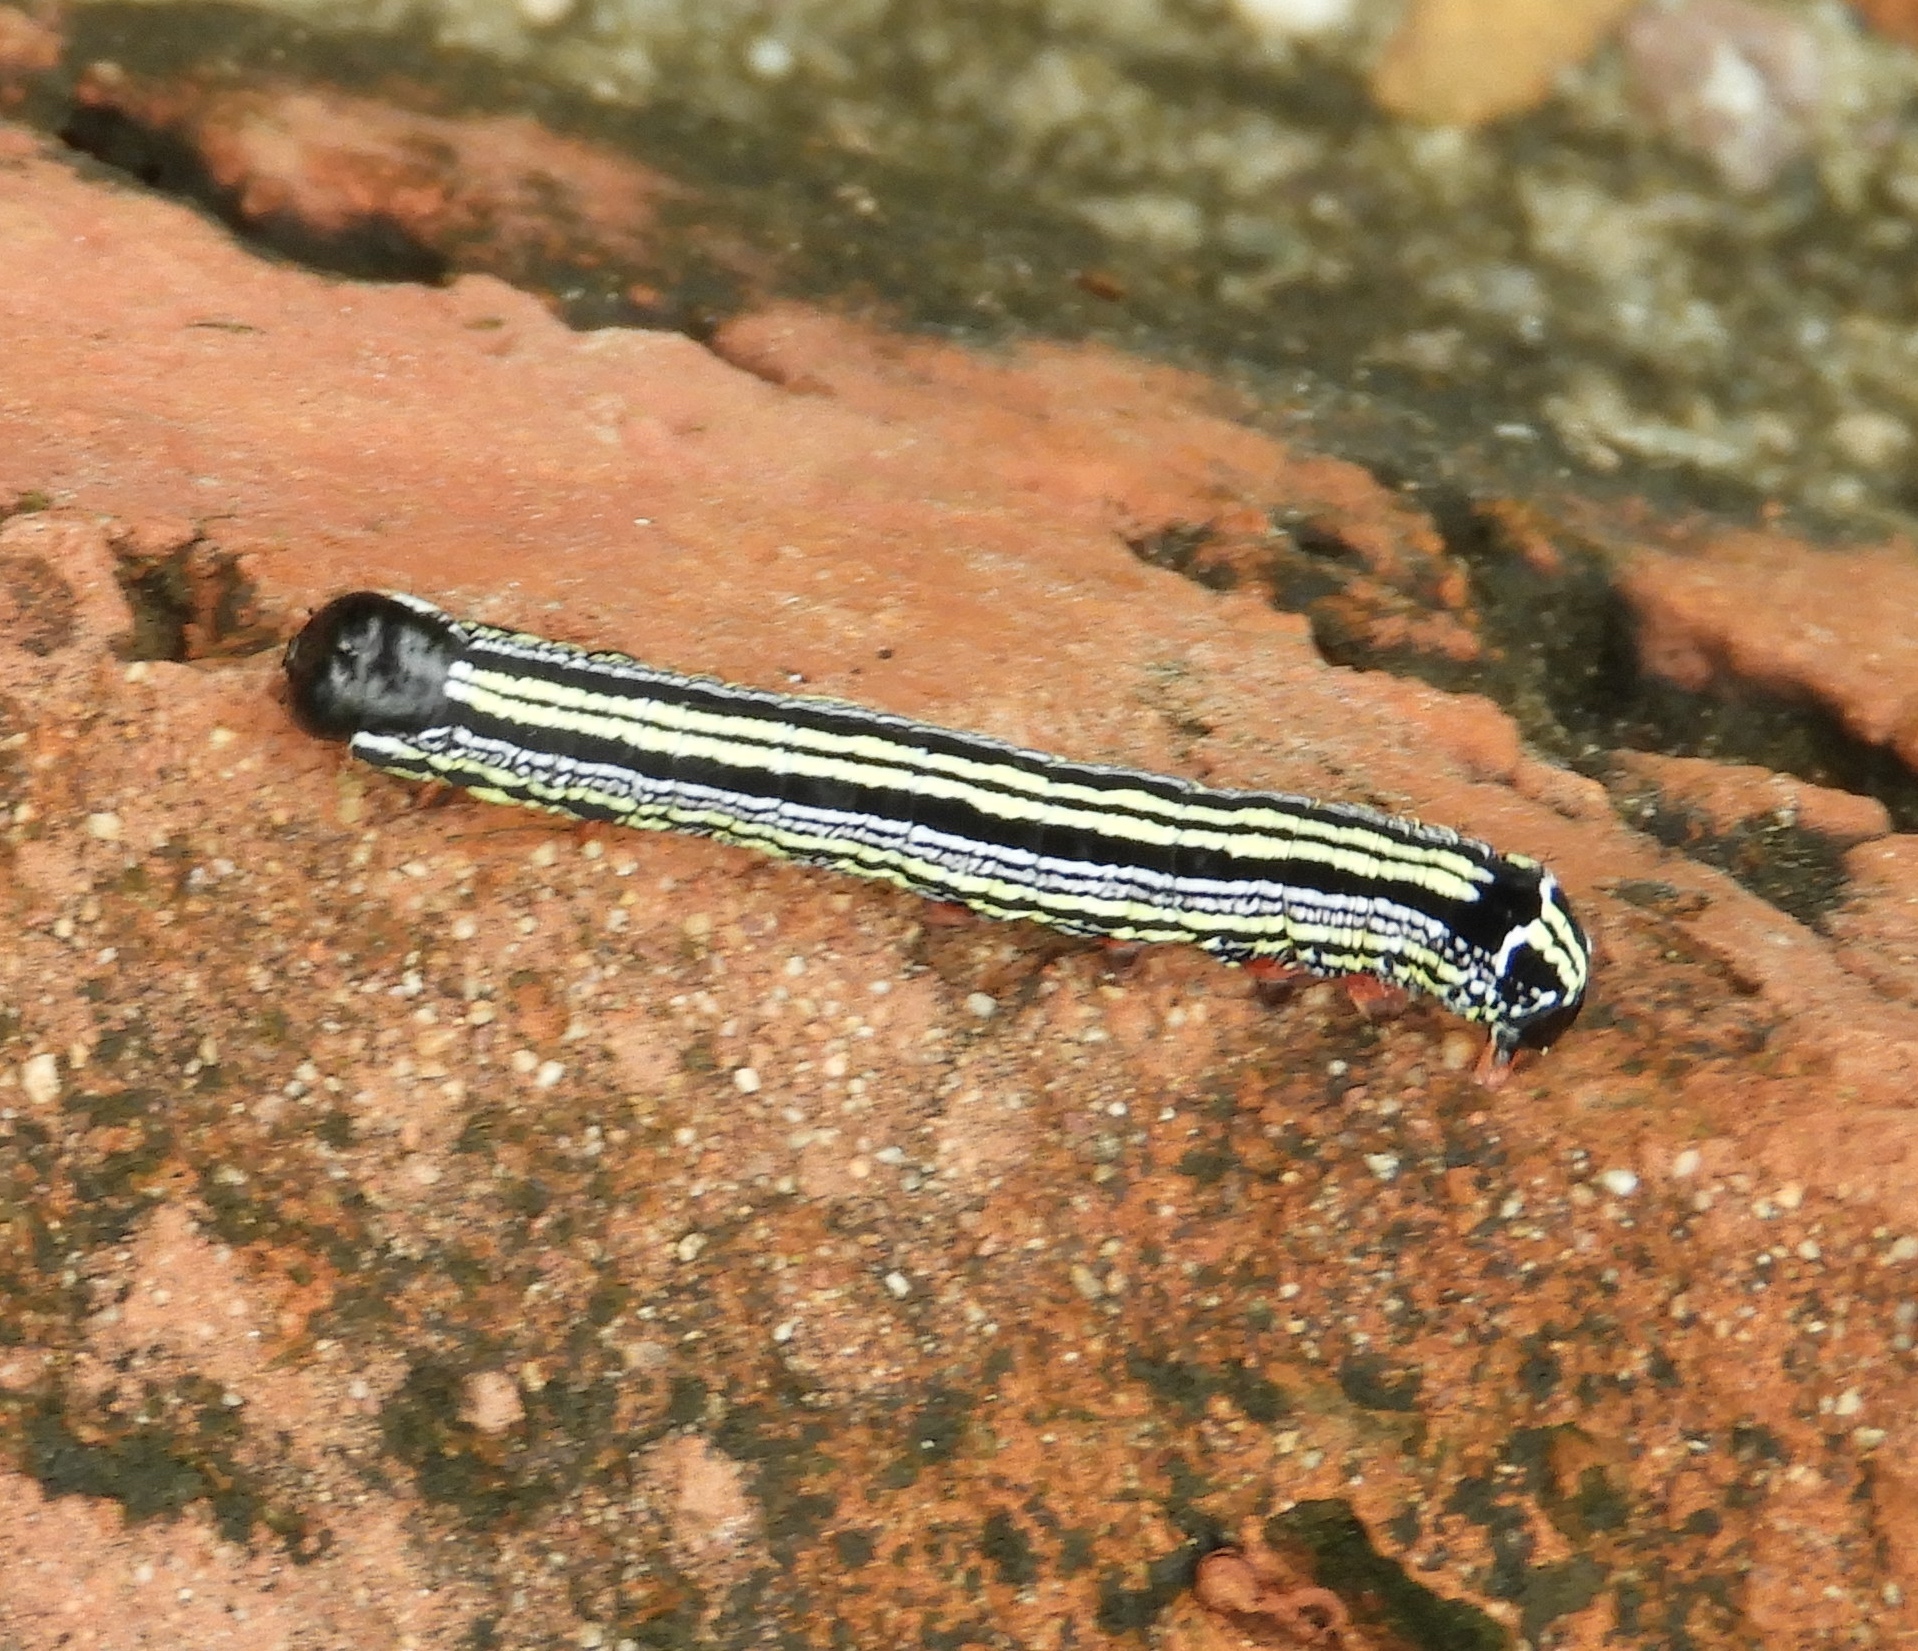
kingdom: Animalia
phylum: Arthropoda
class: Insecta
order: Lepidoptera
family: Notodontidae
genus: Cargida
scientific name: Cargida pyrrha
